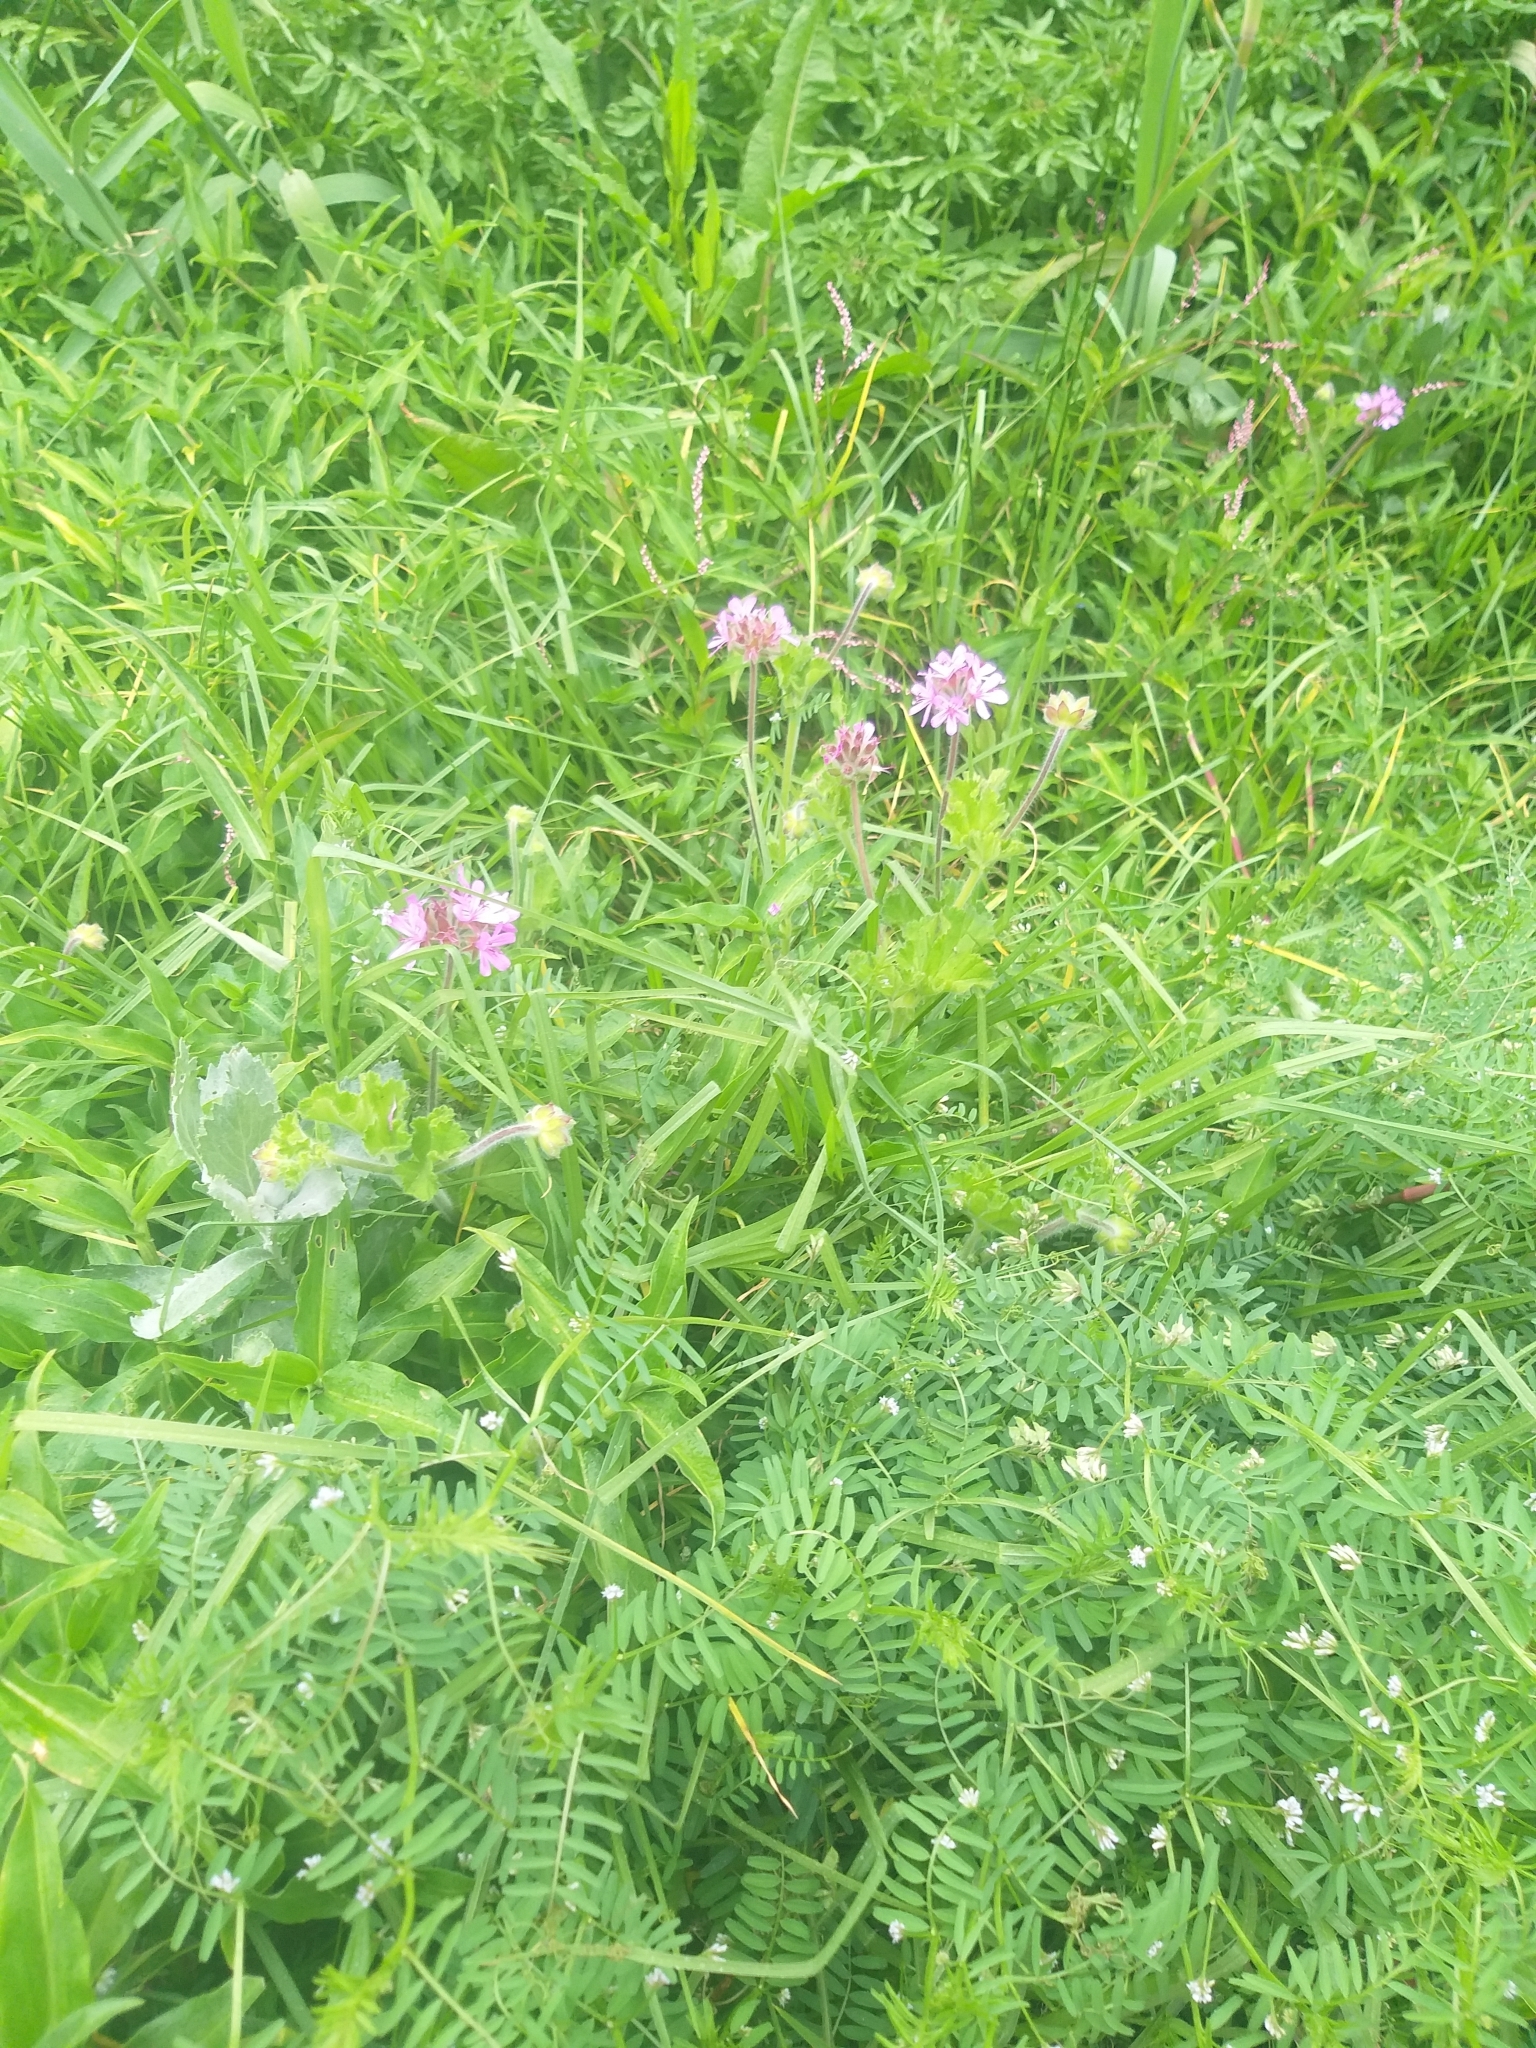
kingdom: Plantae
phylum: Tracheophyta
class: Magnoliopsida
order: Geraniales
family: Geraniaceae
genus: Pelargonium
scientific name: Pelargonium capitatum
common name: Rose scented geranium
